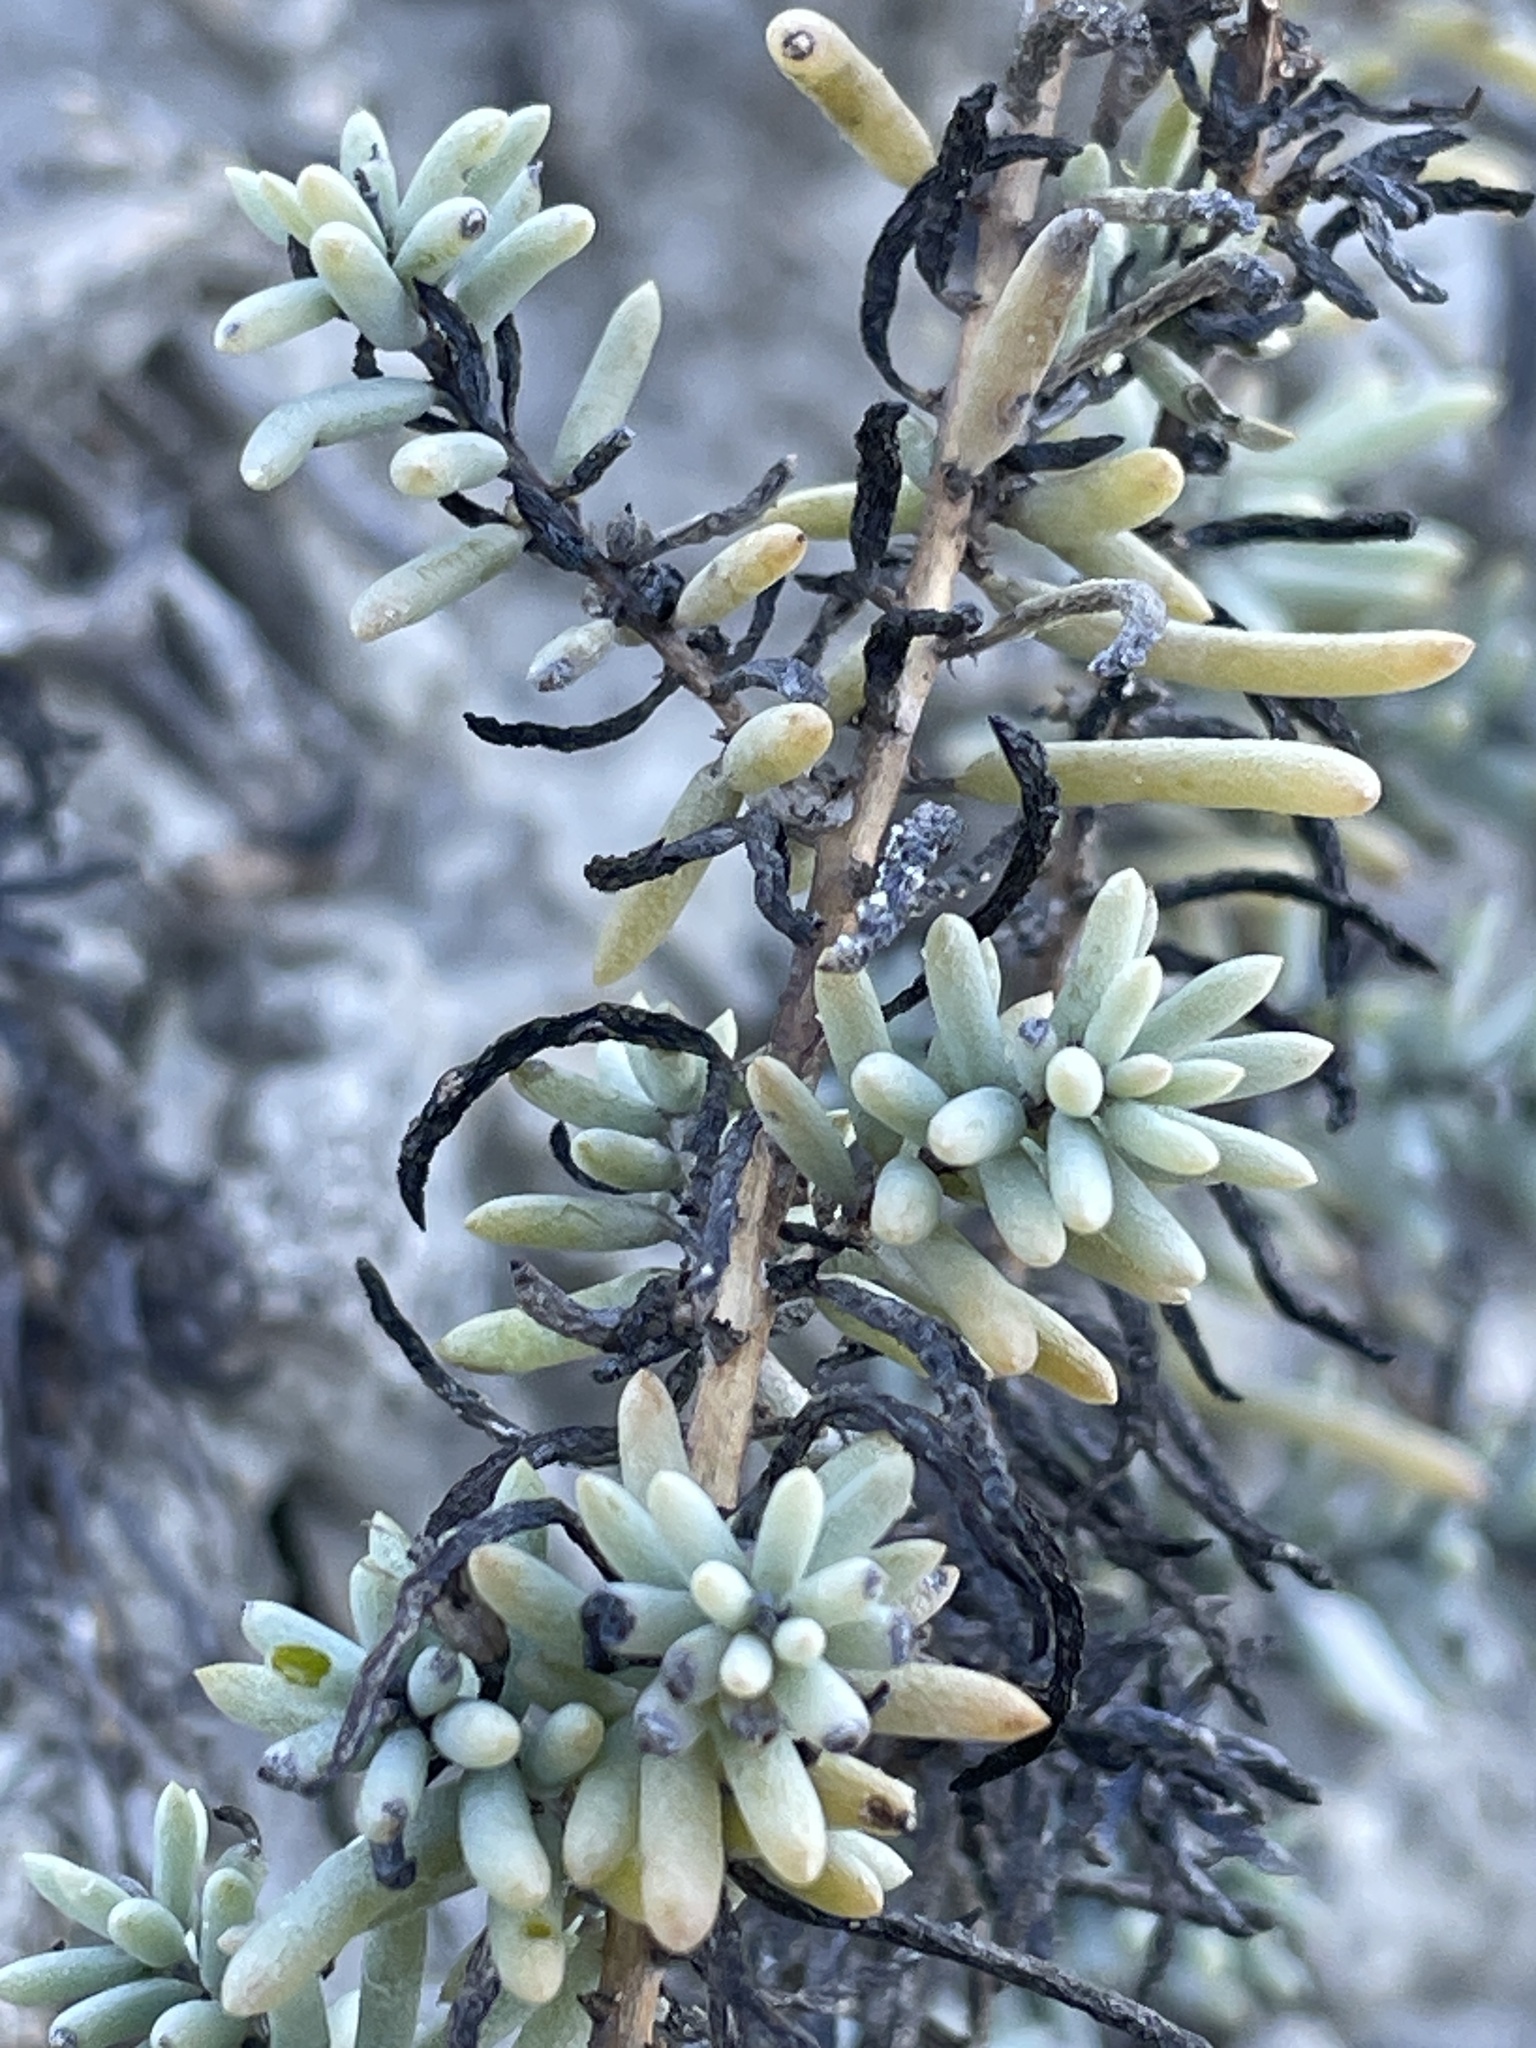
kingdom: Plantae
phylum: Tracheophyta
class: Magnoliopsida
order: Caryophyllales
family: Amaranthaceae
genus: Suaeda
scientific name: Suaeda nigra
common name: Bush seepweed
